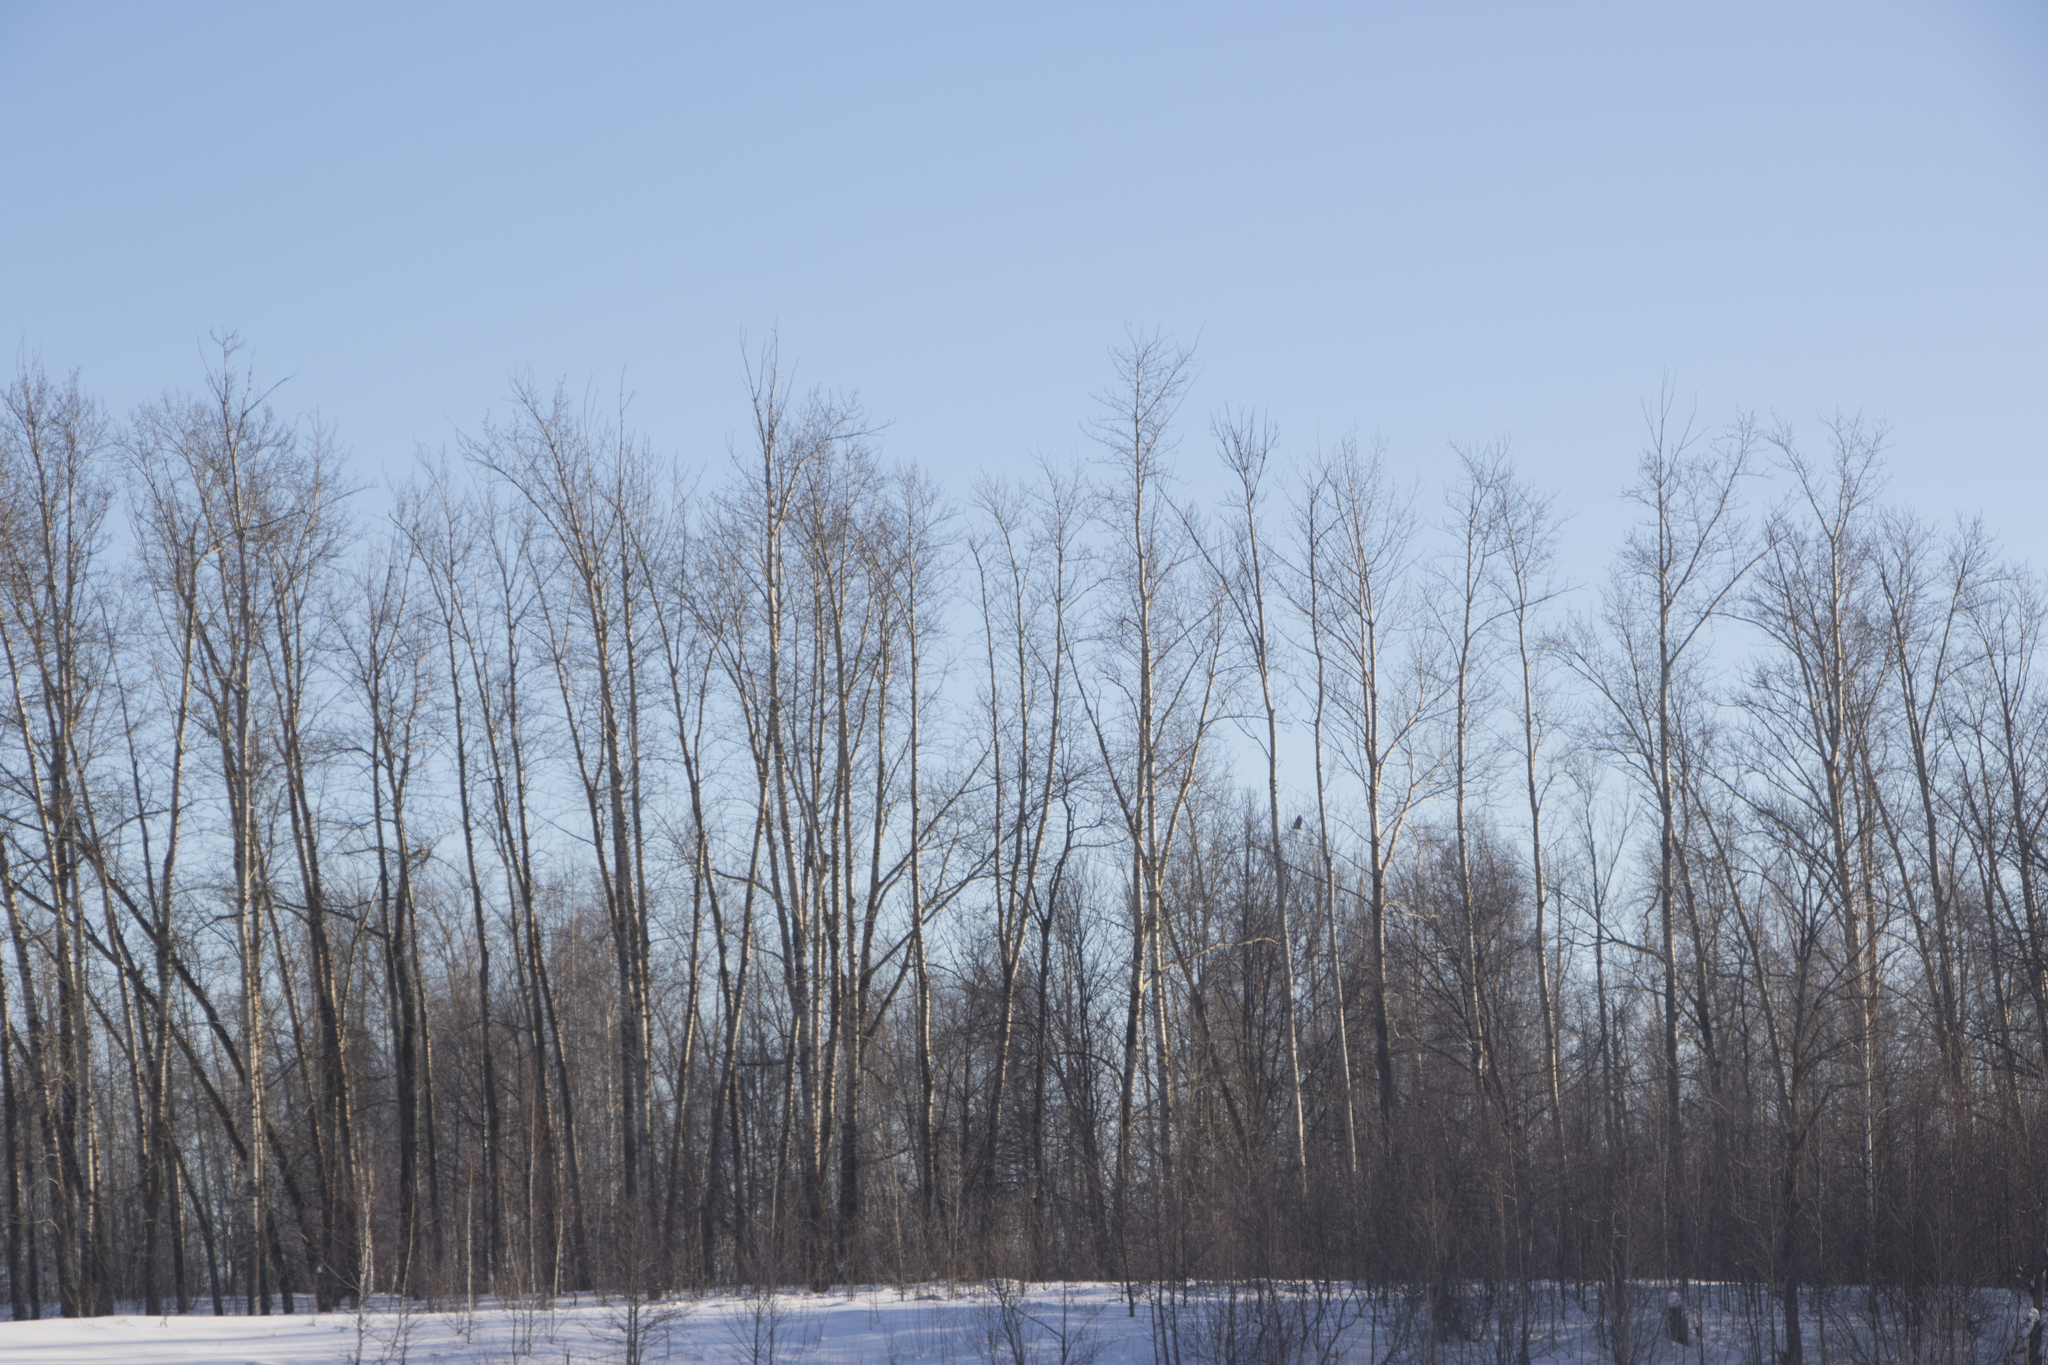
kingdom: Animalia
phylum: Chordata
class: Aves
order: Accipitriformes
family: Accipitridae
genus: Haliaeetus
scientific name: Haliaeetus albicilla
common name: White-tailed eagle
